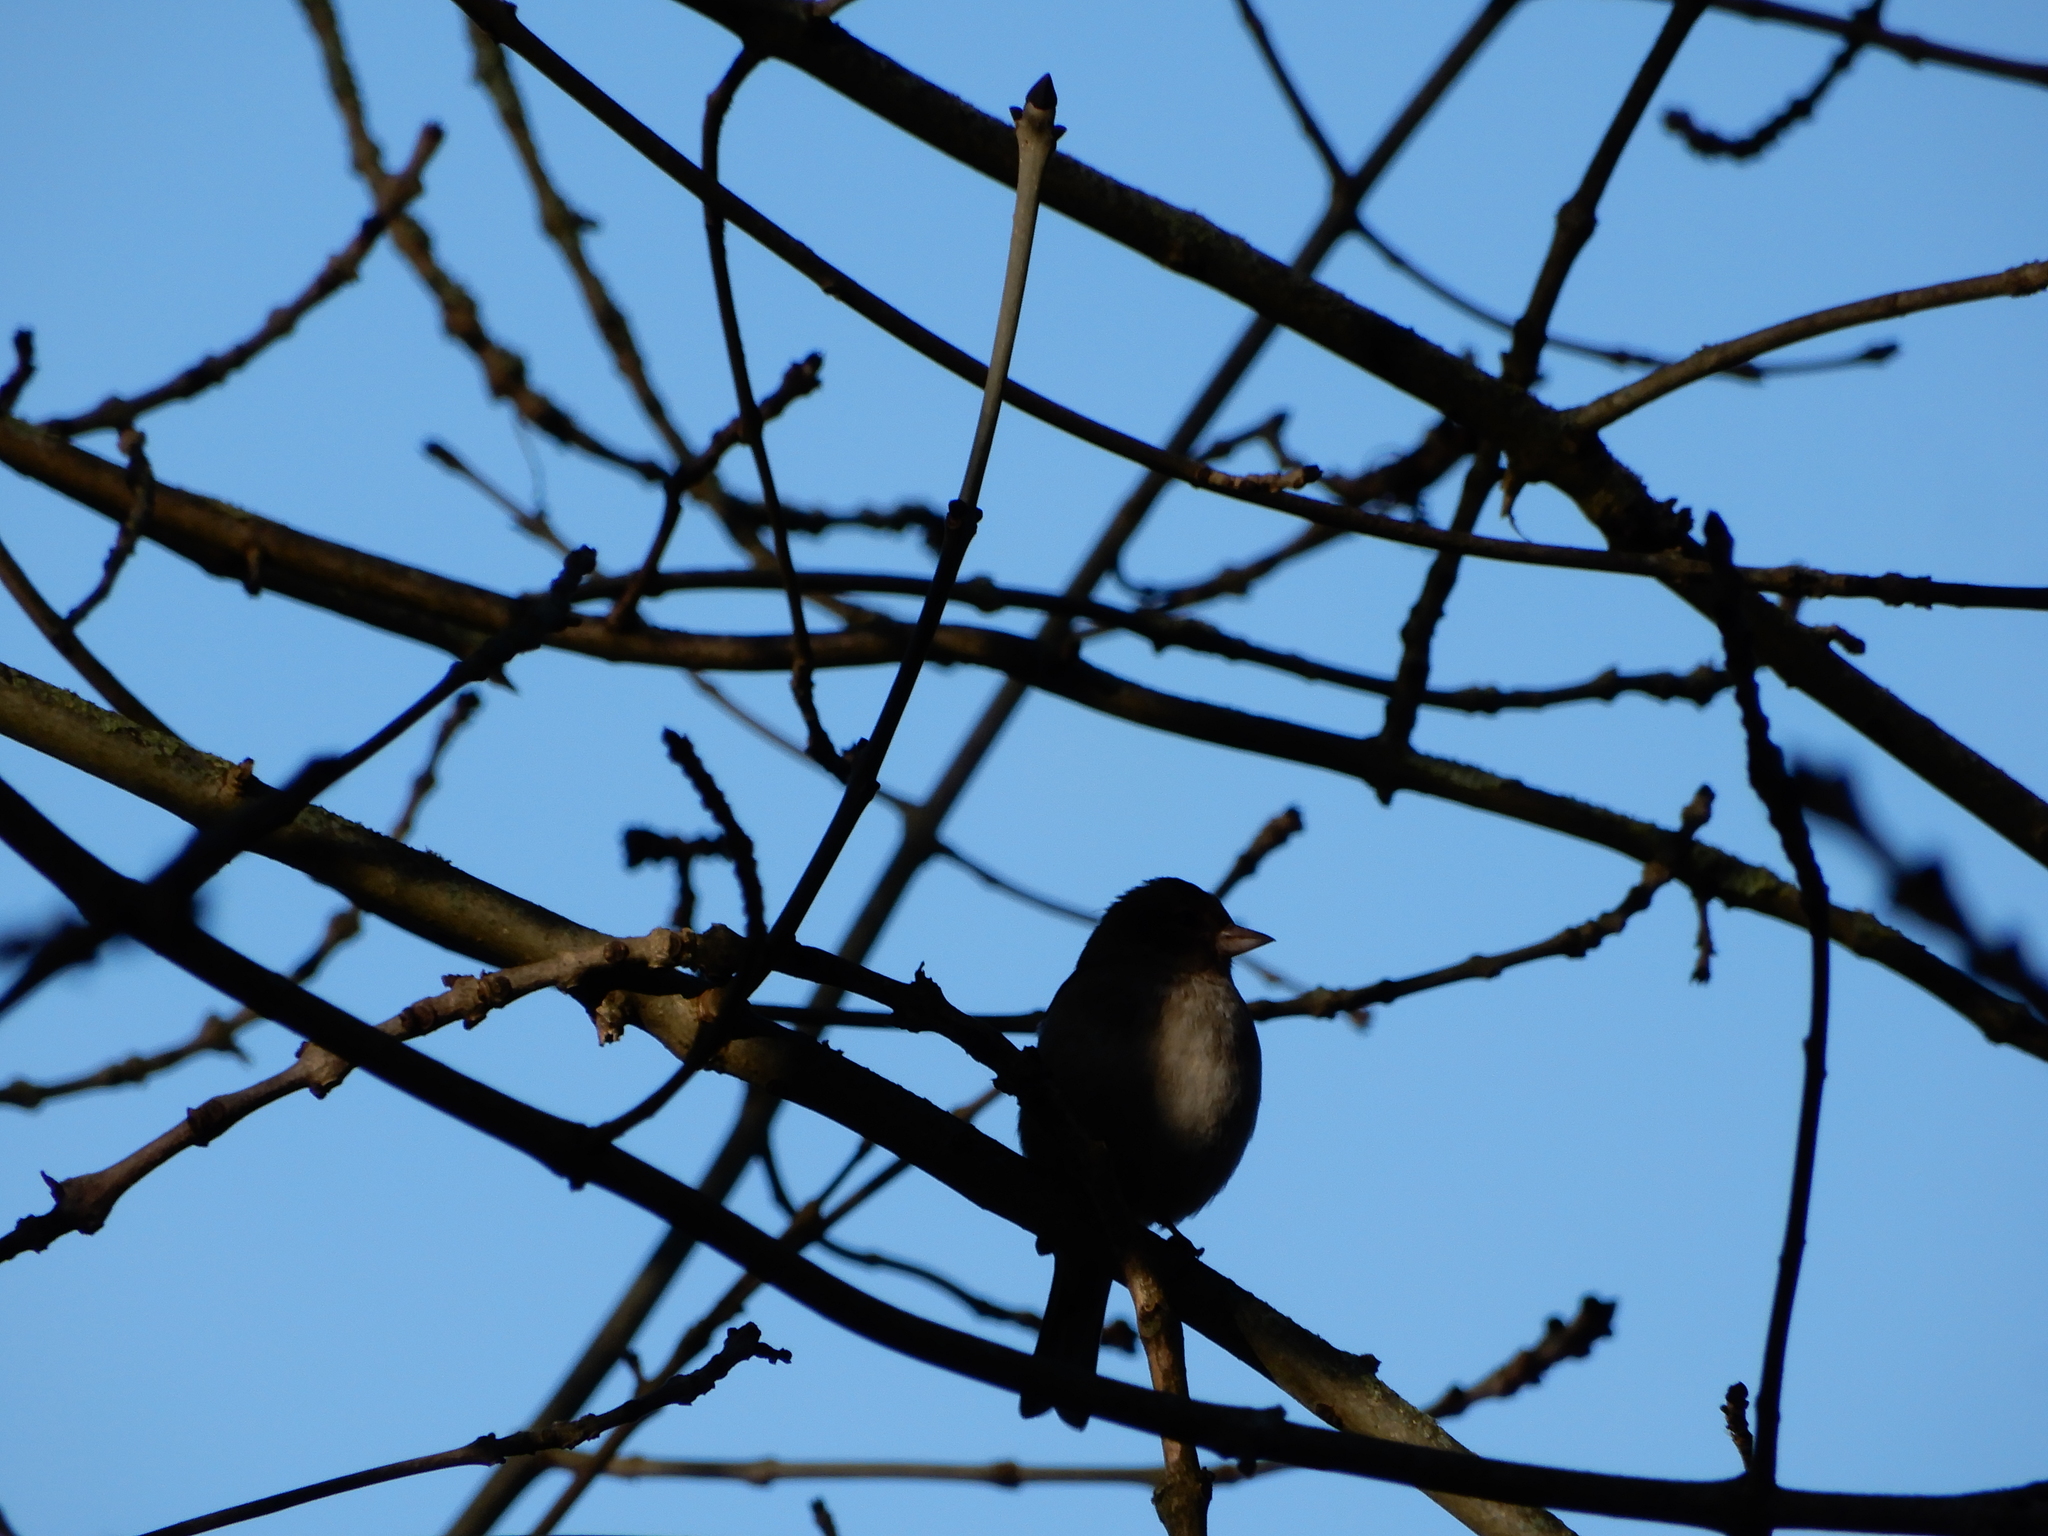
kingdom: Animalia
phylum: Chordata
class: Aves
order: Passeriformes
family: Fringillidae
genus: Fringilla
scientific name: Fringilla coelebs
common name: Common chaffinch
